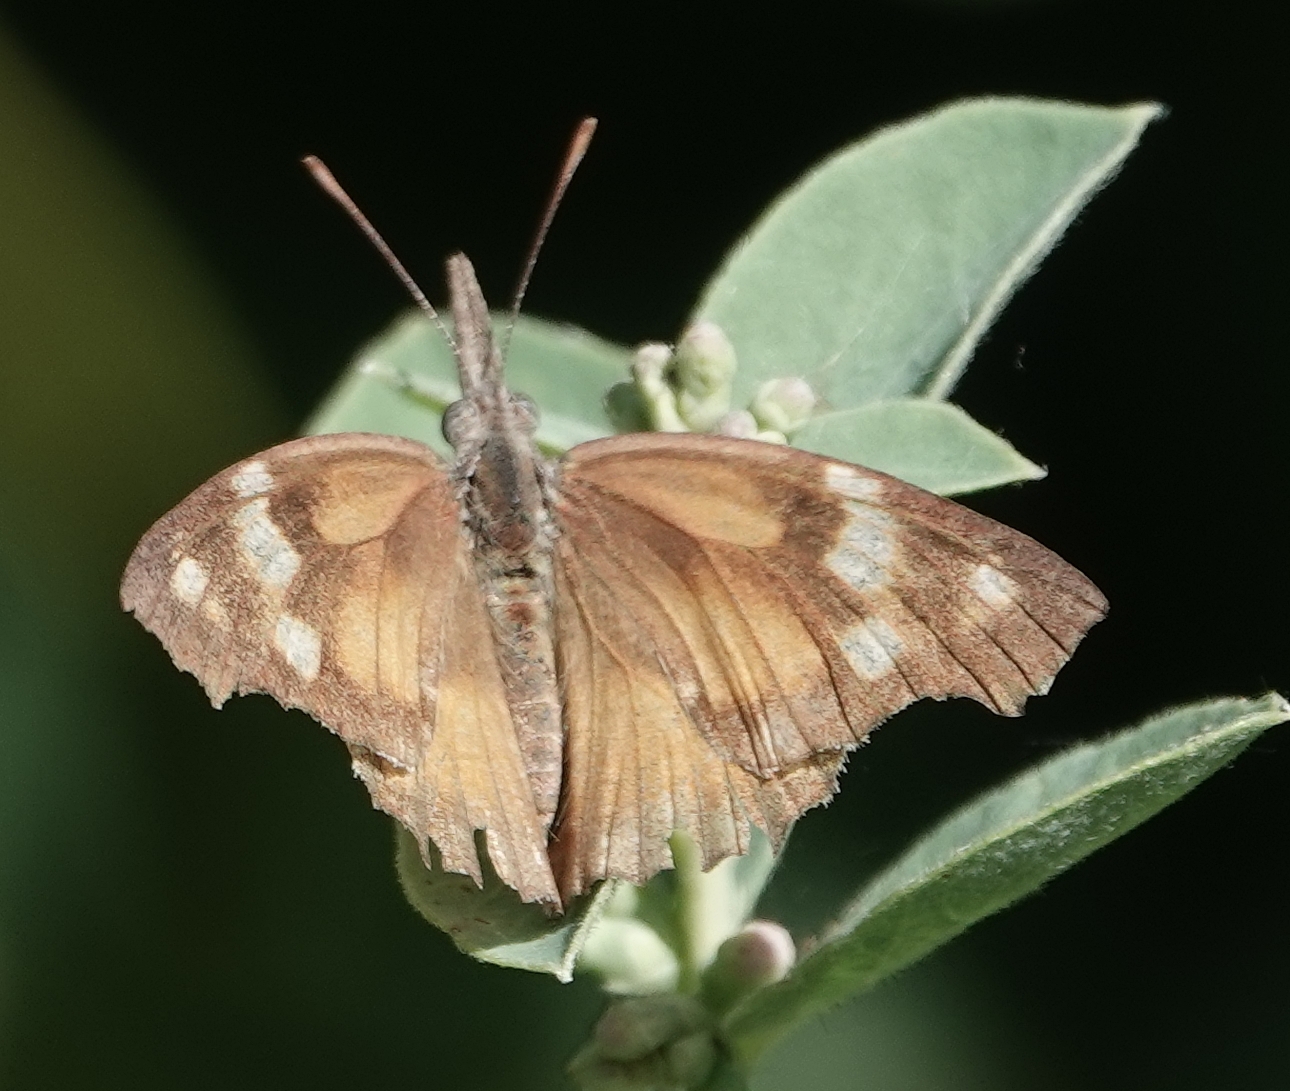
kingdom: Animalia
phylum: Arthropoda
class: Insecta
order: Lepidoptera
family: Nymphalidae
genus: Libytheana
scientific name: Libytheana carinenta
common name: American snout
